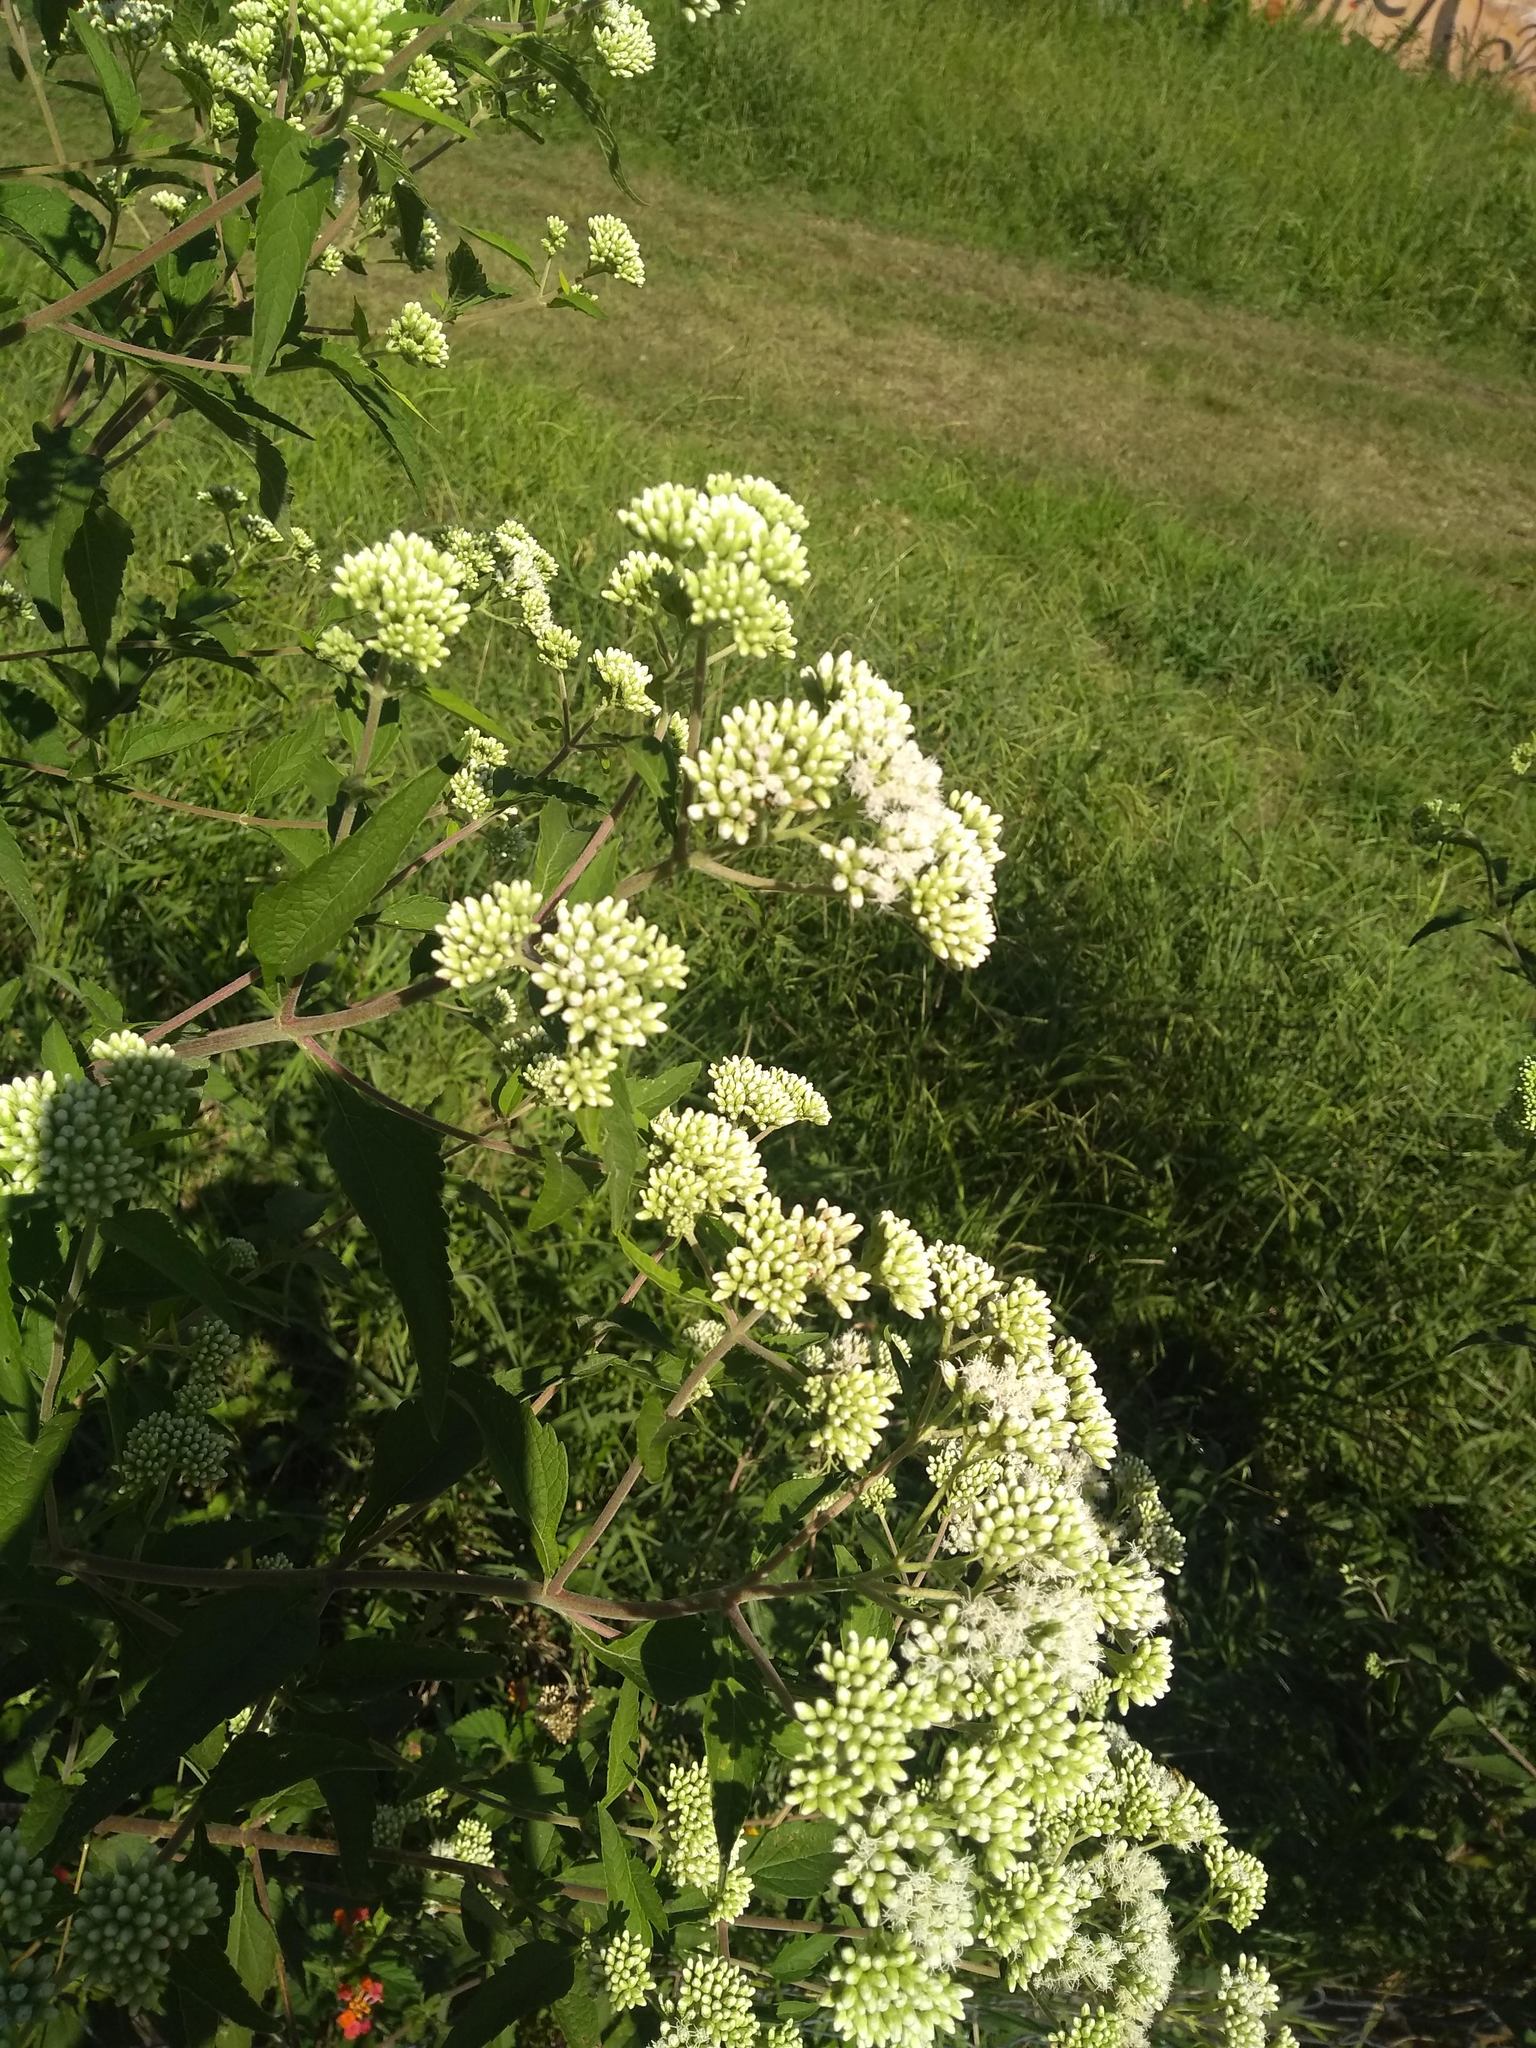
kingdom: Plantae
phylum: Tracheophyta
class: Magnoliopsida
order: Asterales
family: Asteraceae
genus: Austroeupatorium
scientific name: Austroeupatorium inulifolium
